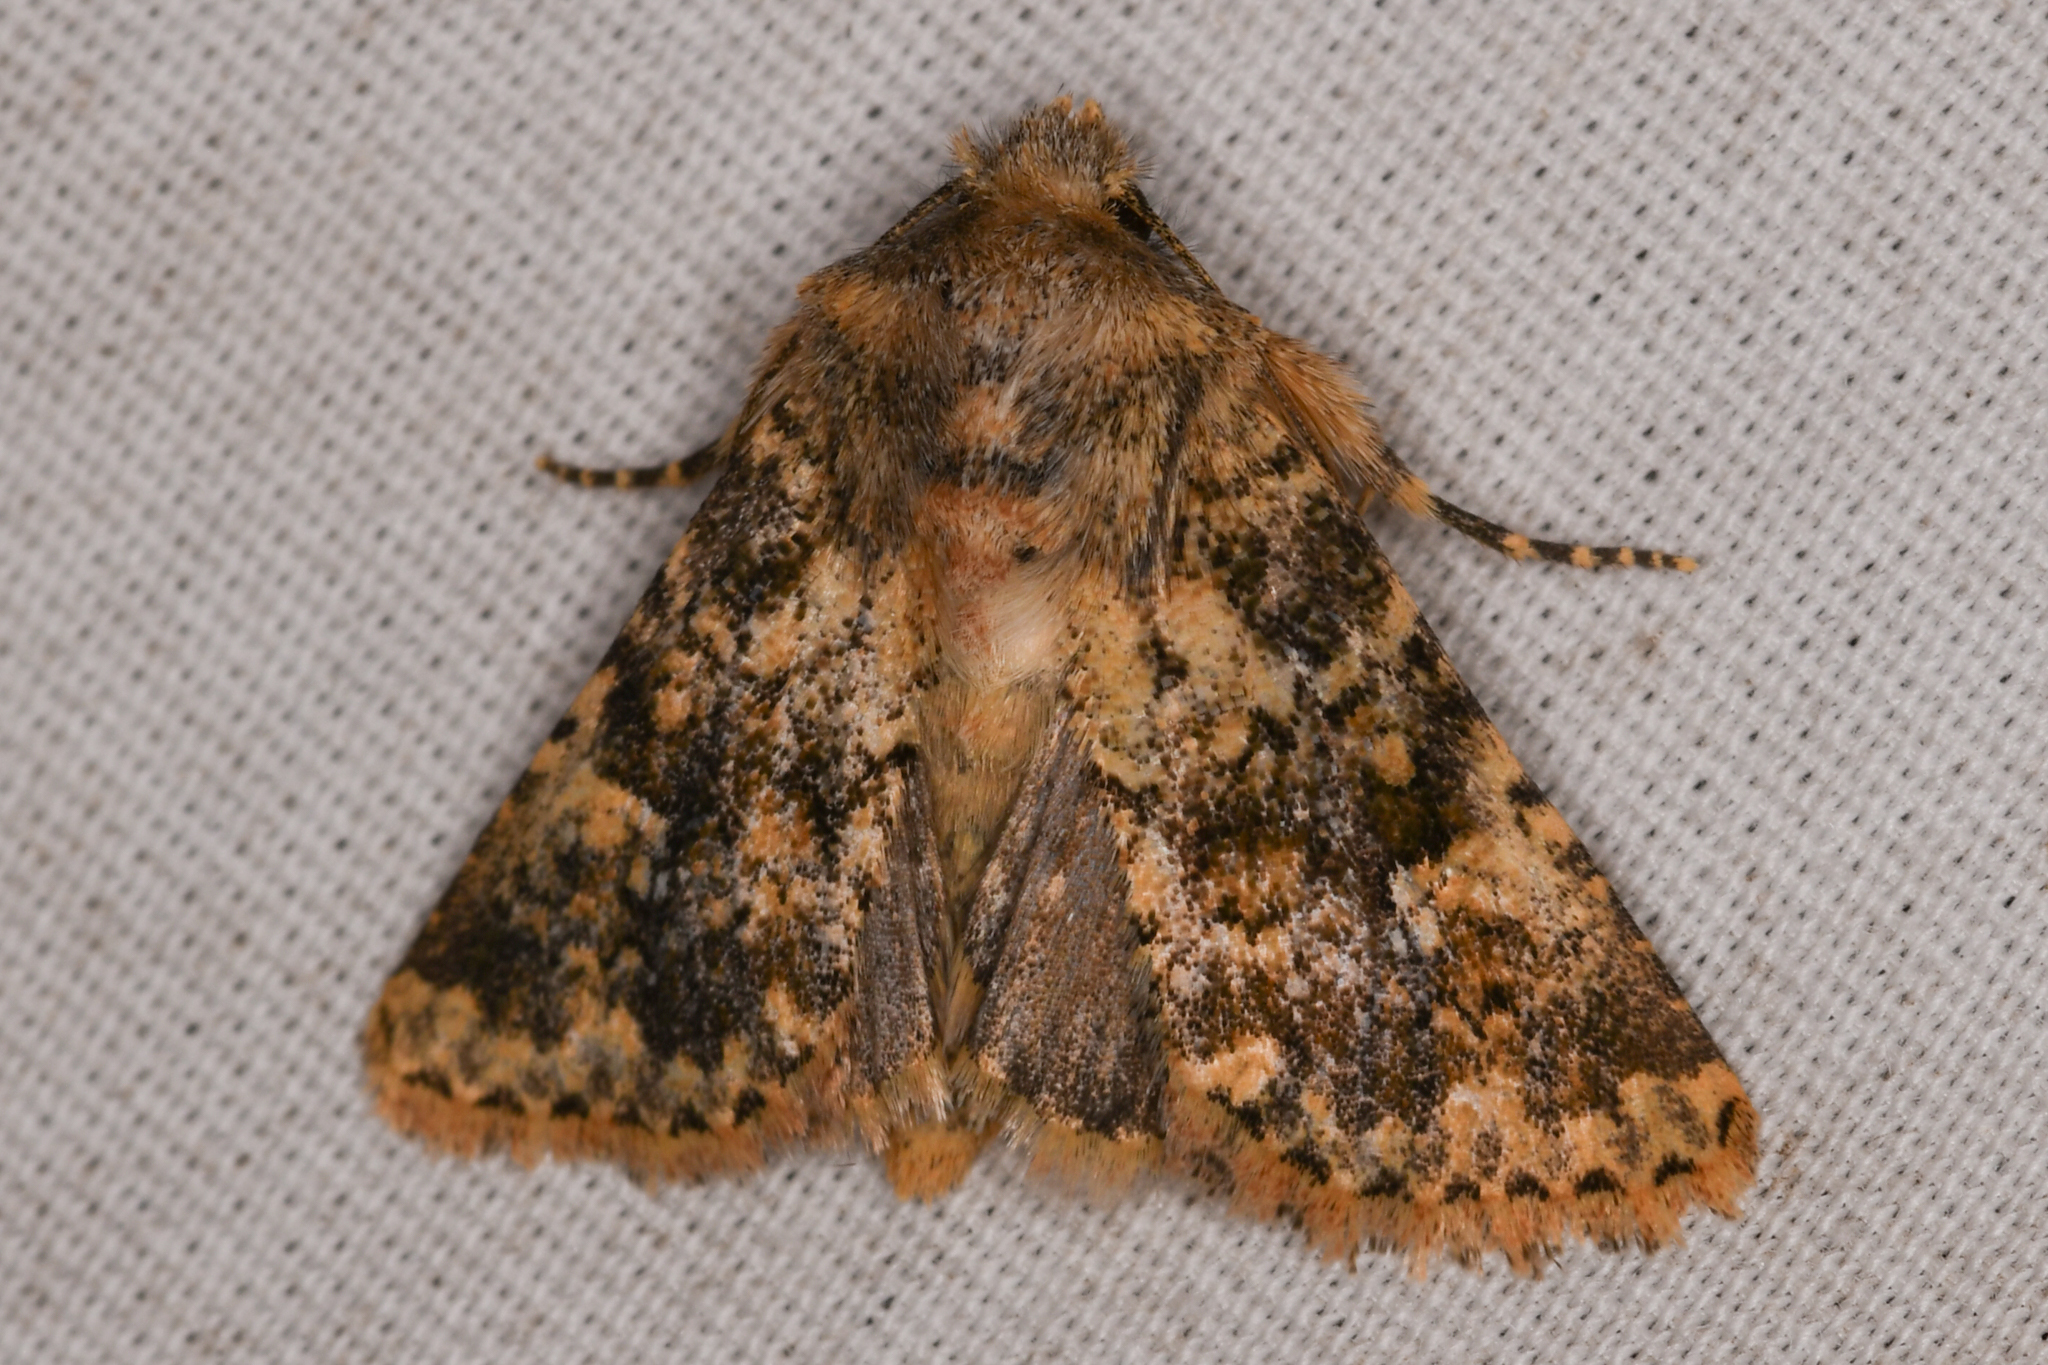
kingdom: Animalia
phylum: Arthropoda
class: Insecta
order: Lepidoptera
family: Noctuidae
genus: Pseudobryomima
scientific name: Pseudobryomima fallax
